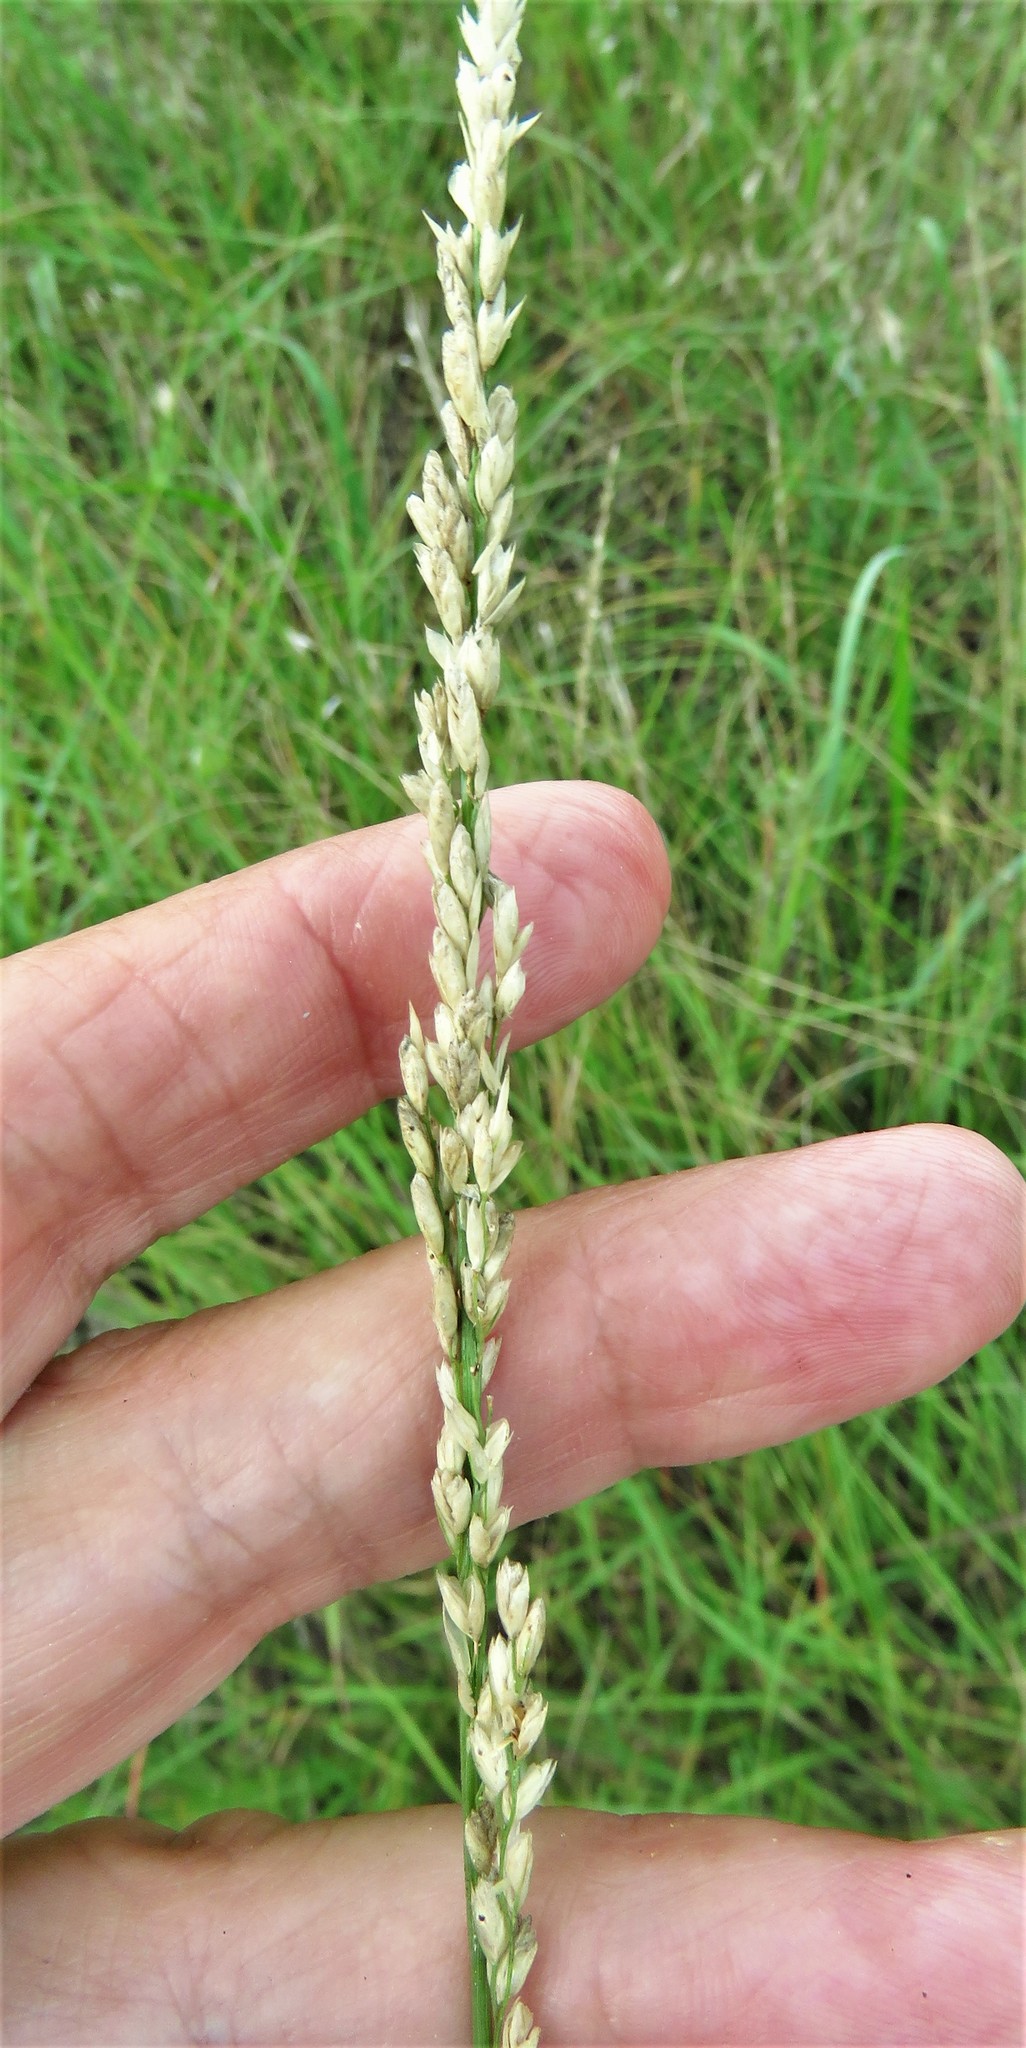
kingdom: Plantae
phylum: Tracheophyta
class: Liliopsida
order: Poales
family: Poaceae
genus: Tridens
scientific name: Tridens albescens
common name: White tridens
